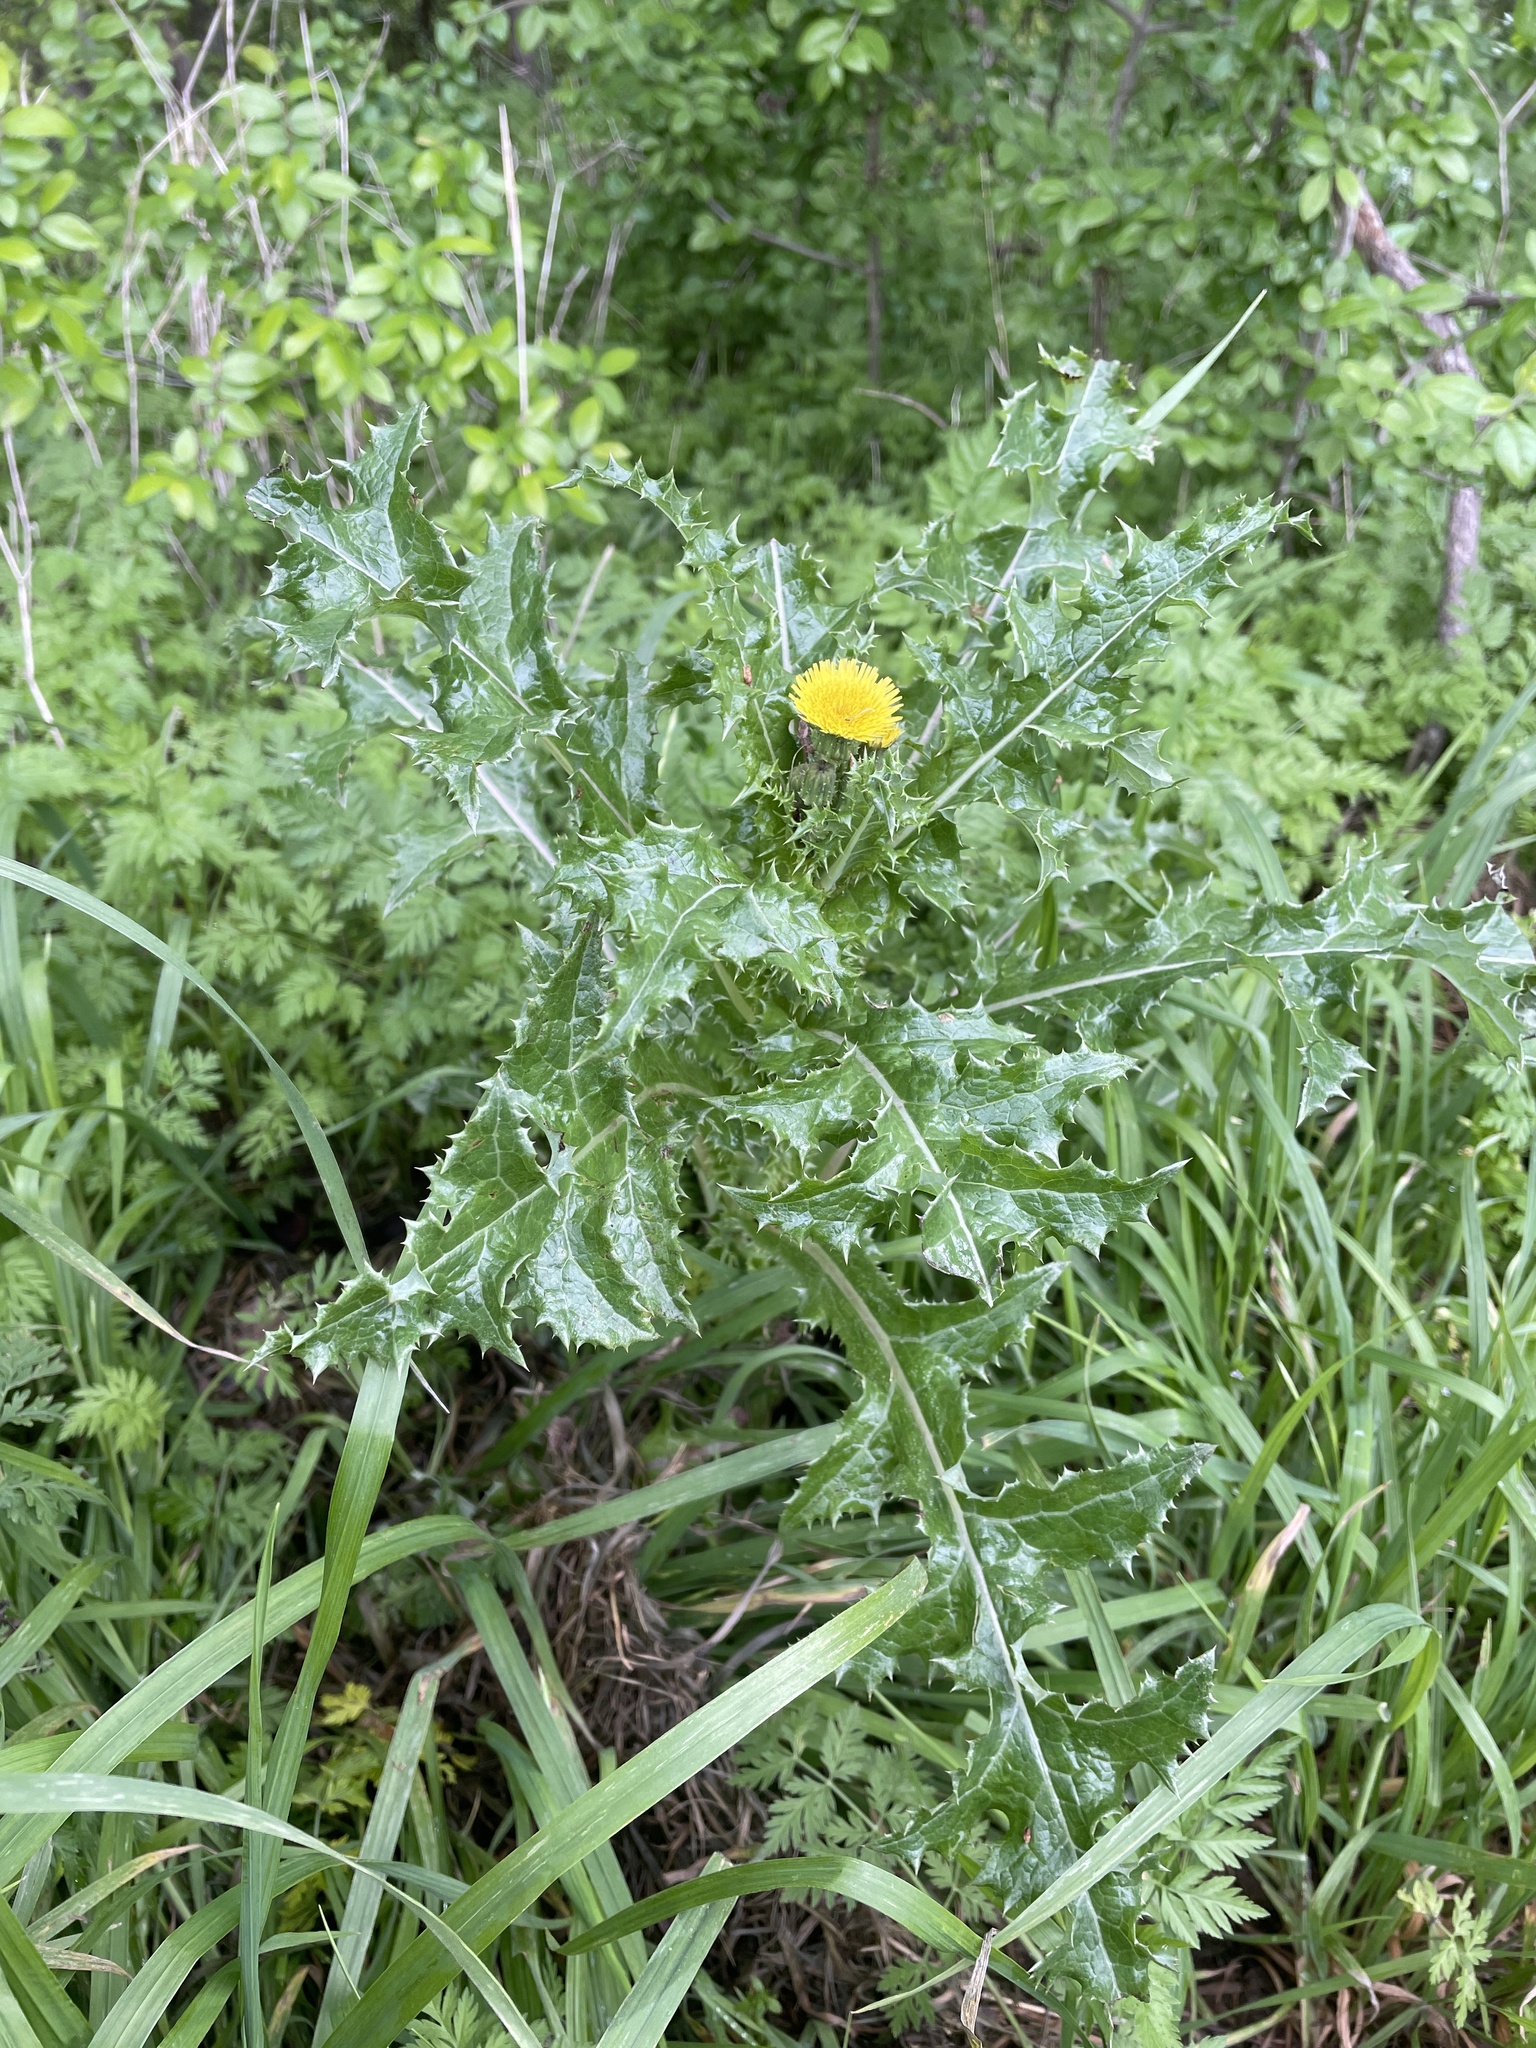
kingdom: Plantae
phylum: Tracheophyta
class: Magnoliopsida
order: Asterales
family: Asteraceae
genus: Sonchus
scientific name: Sonchus asper
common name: Prickly sow-thistle
